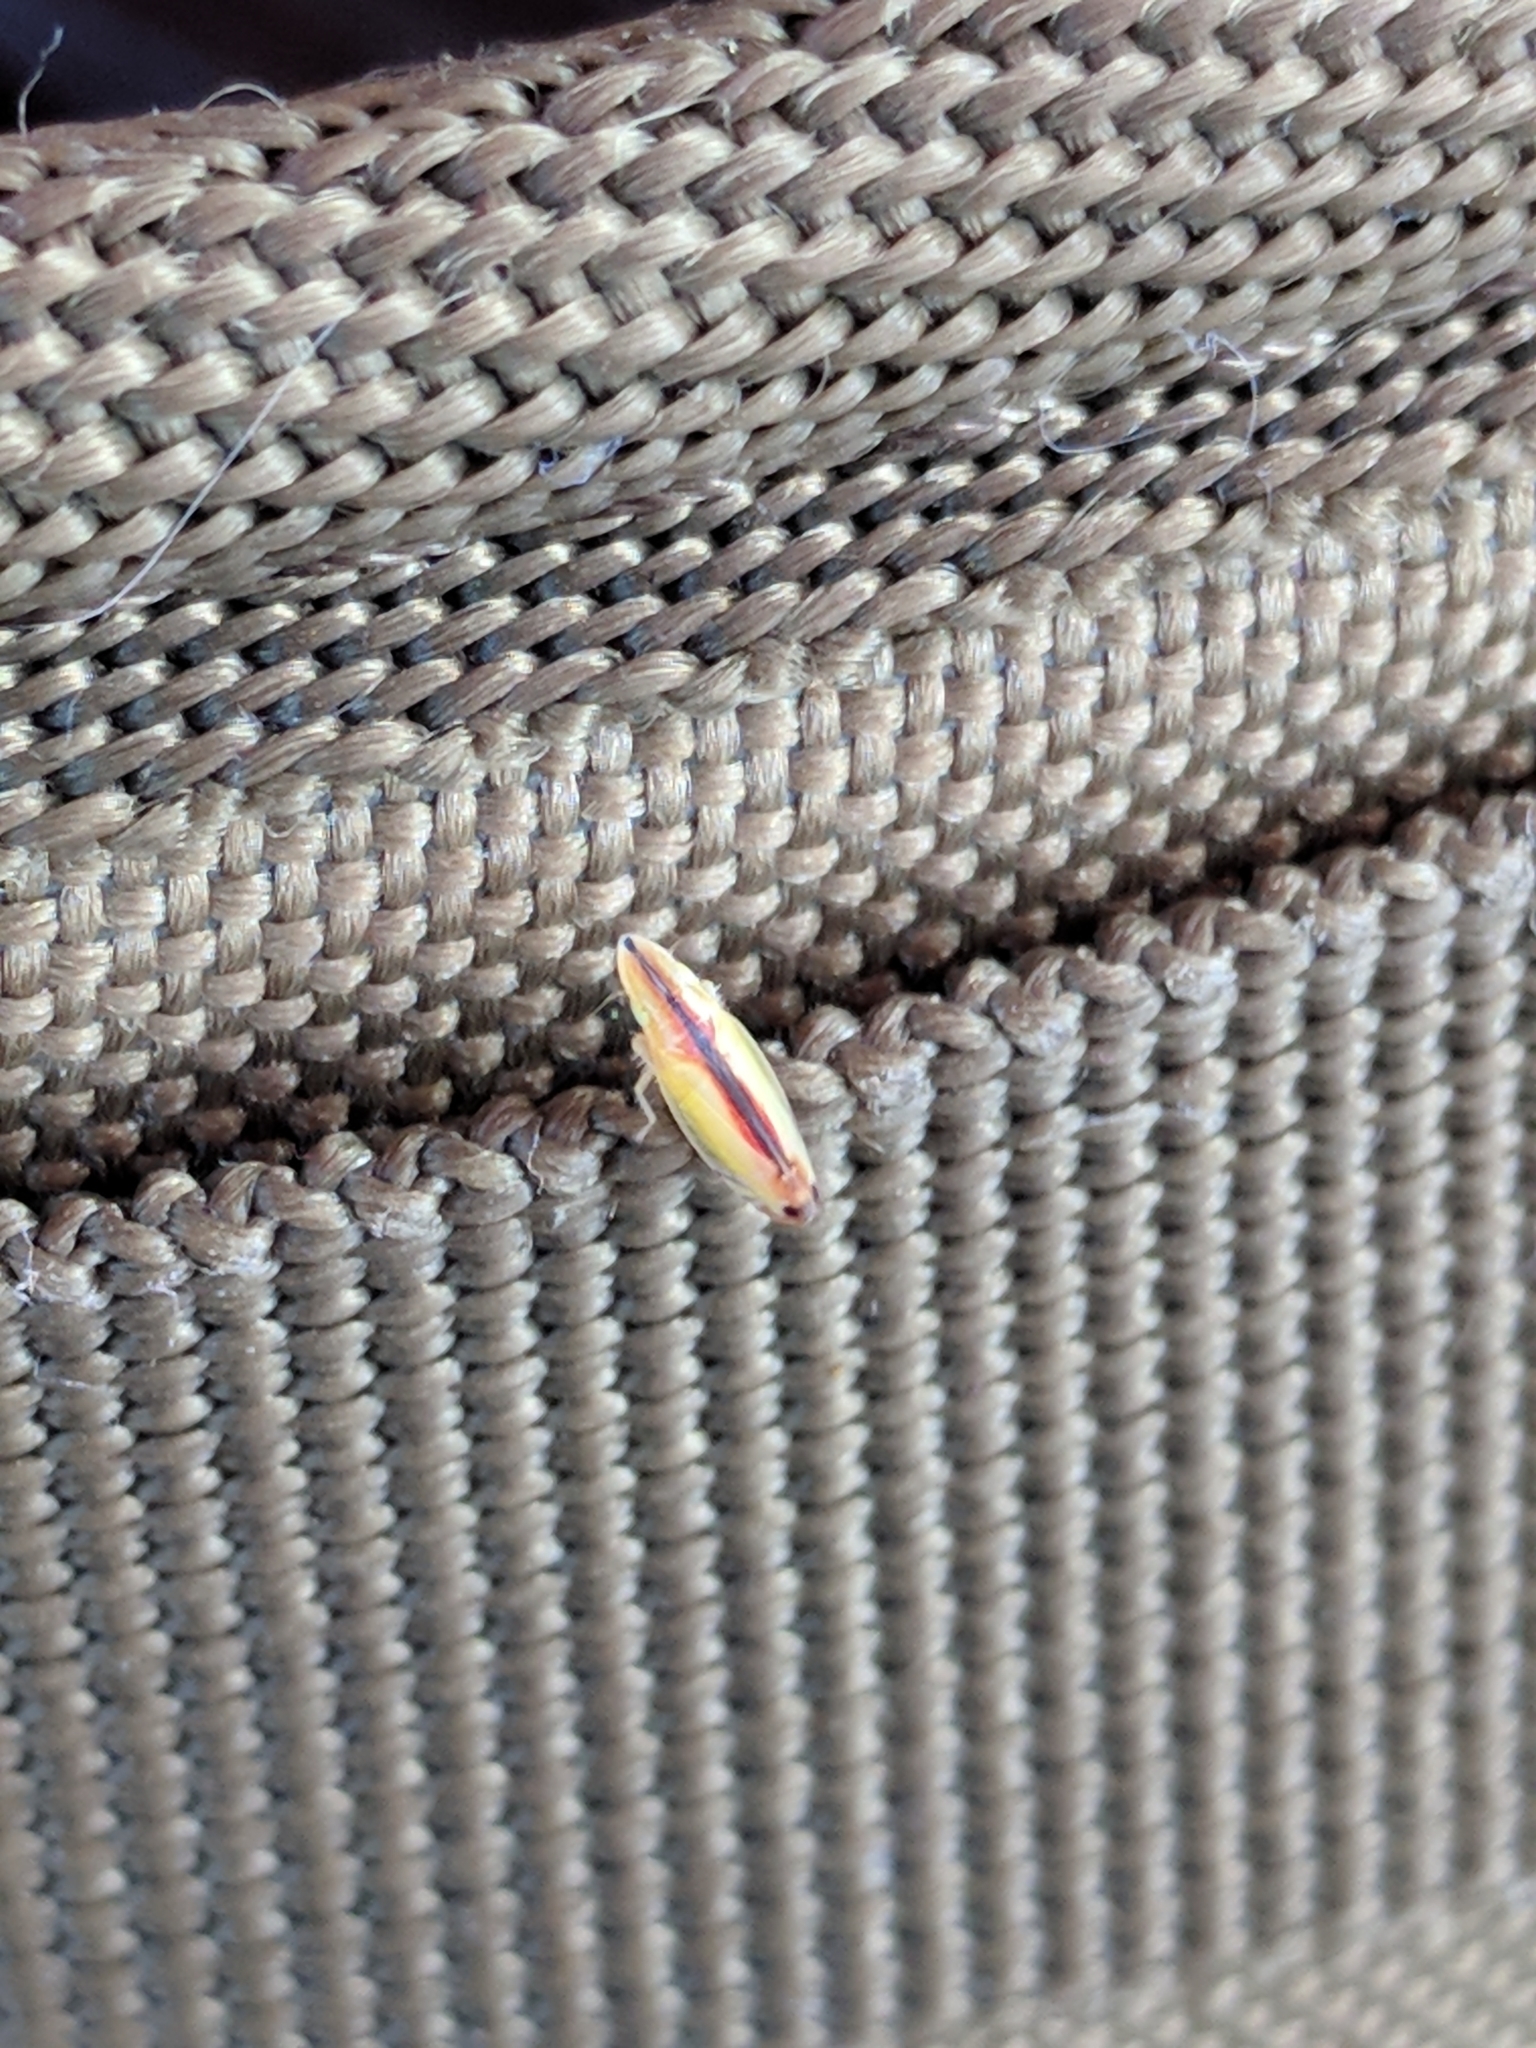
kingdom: Animalia
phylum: Arthropoda
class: Insecta
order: Hemiptera
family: Cicadellidae
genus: Sophonia
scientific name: Sophonia orientalis
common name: Two-spotted leafhopper
